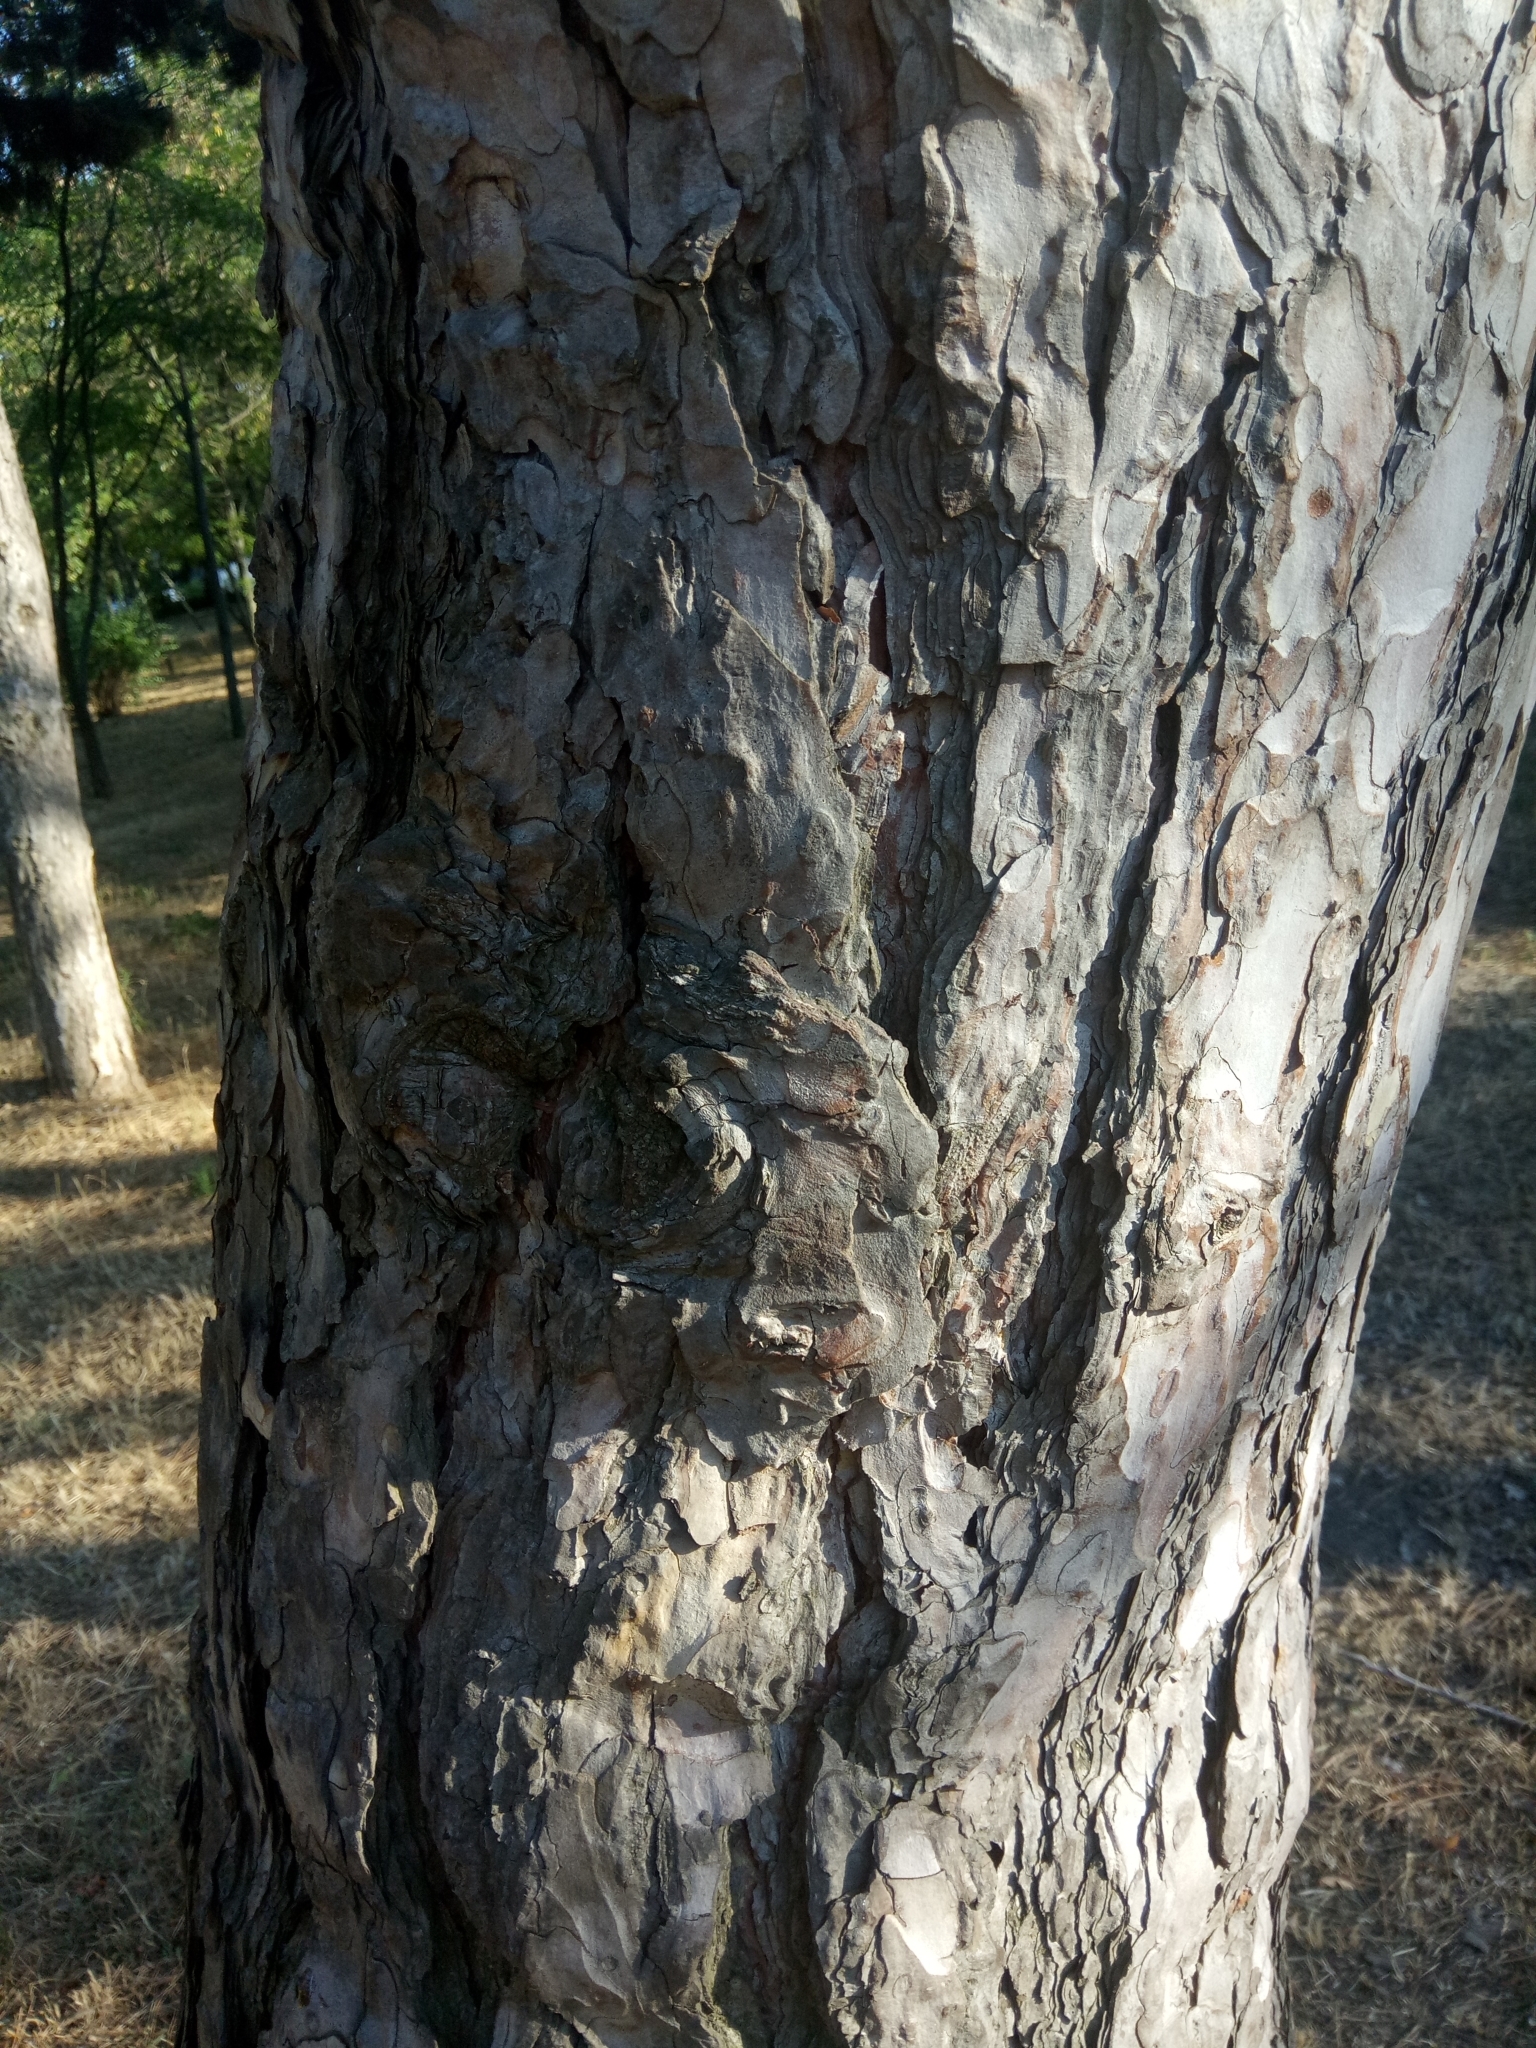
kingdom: Plantae
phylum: Tracheophyta
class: Pinopsida
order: Pinales
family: Pinaceae
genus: Pinus
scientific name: Pinus nigra
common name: Austrian pine
